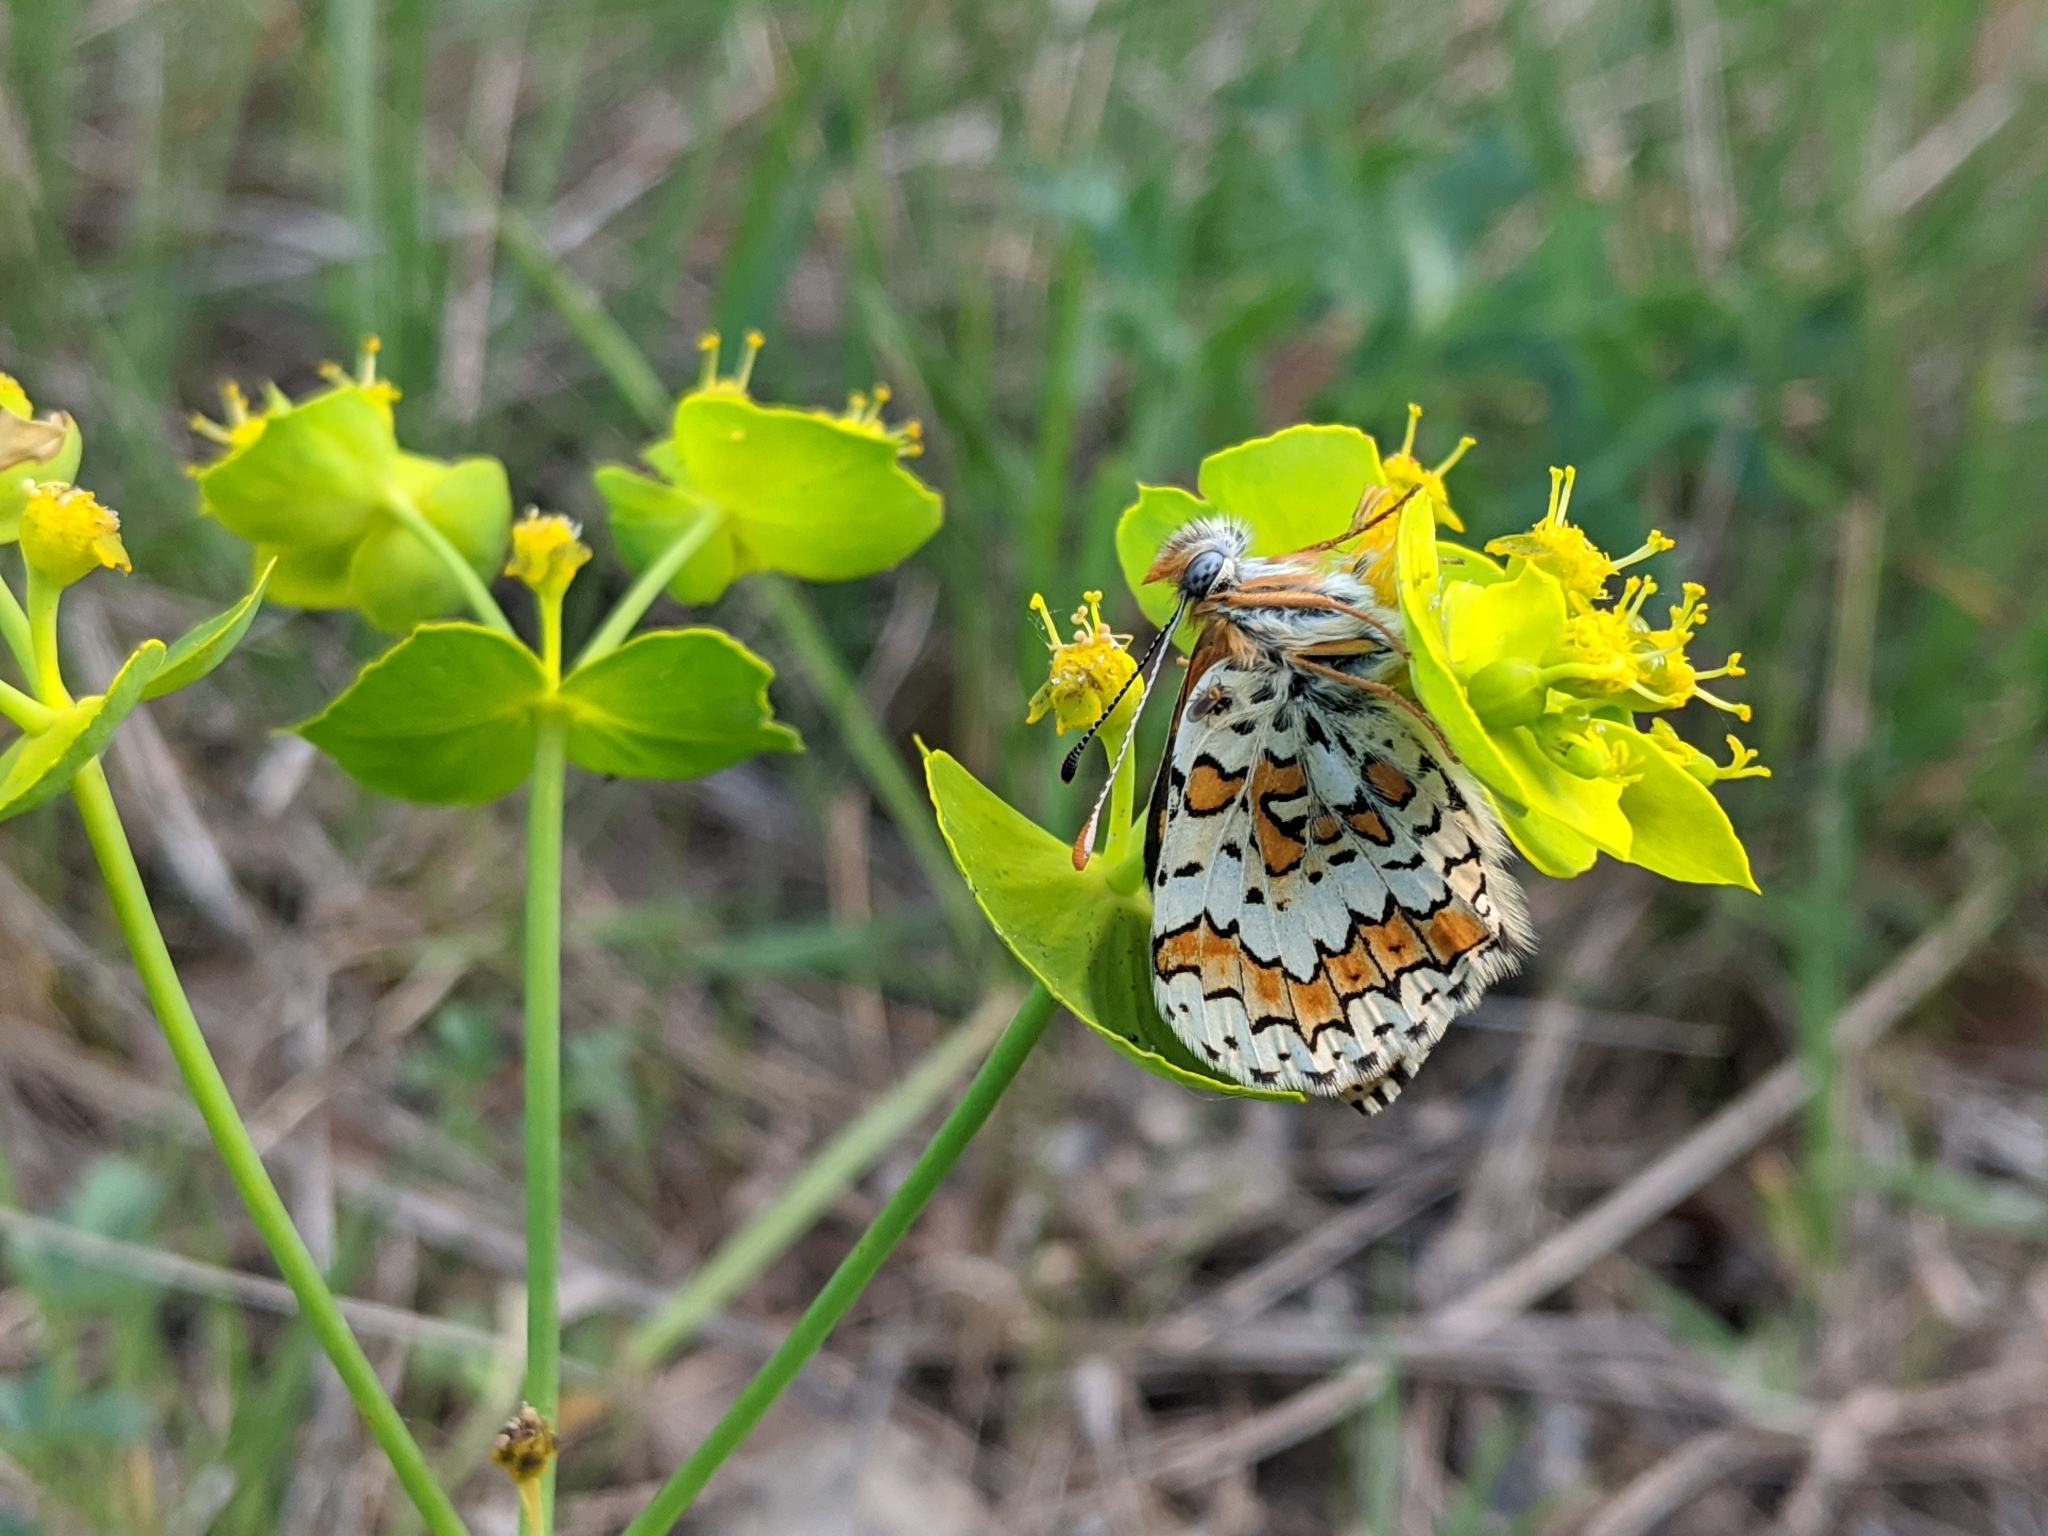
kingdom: Animalia
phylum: Arthropoda
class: Insecta
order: Lepidoptera
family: Nymphalidae
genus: Melitaea
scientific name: Melitaea cinxia
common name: Glanville fritillary
